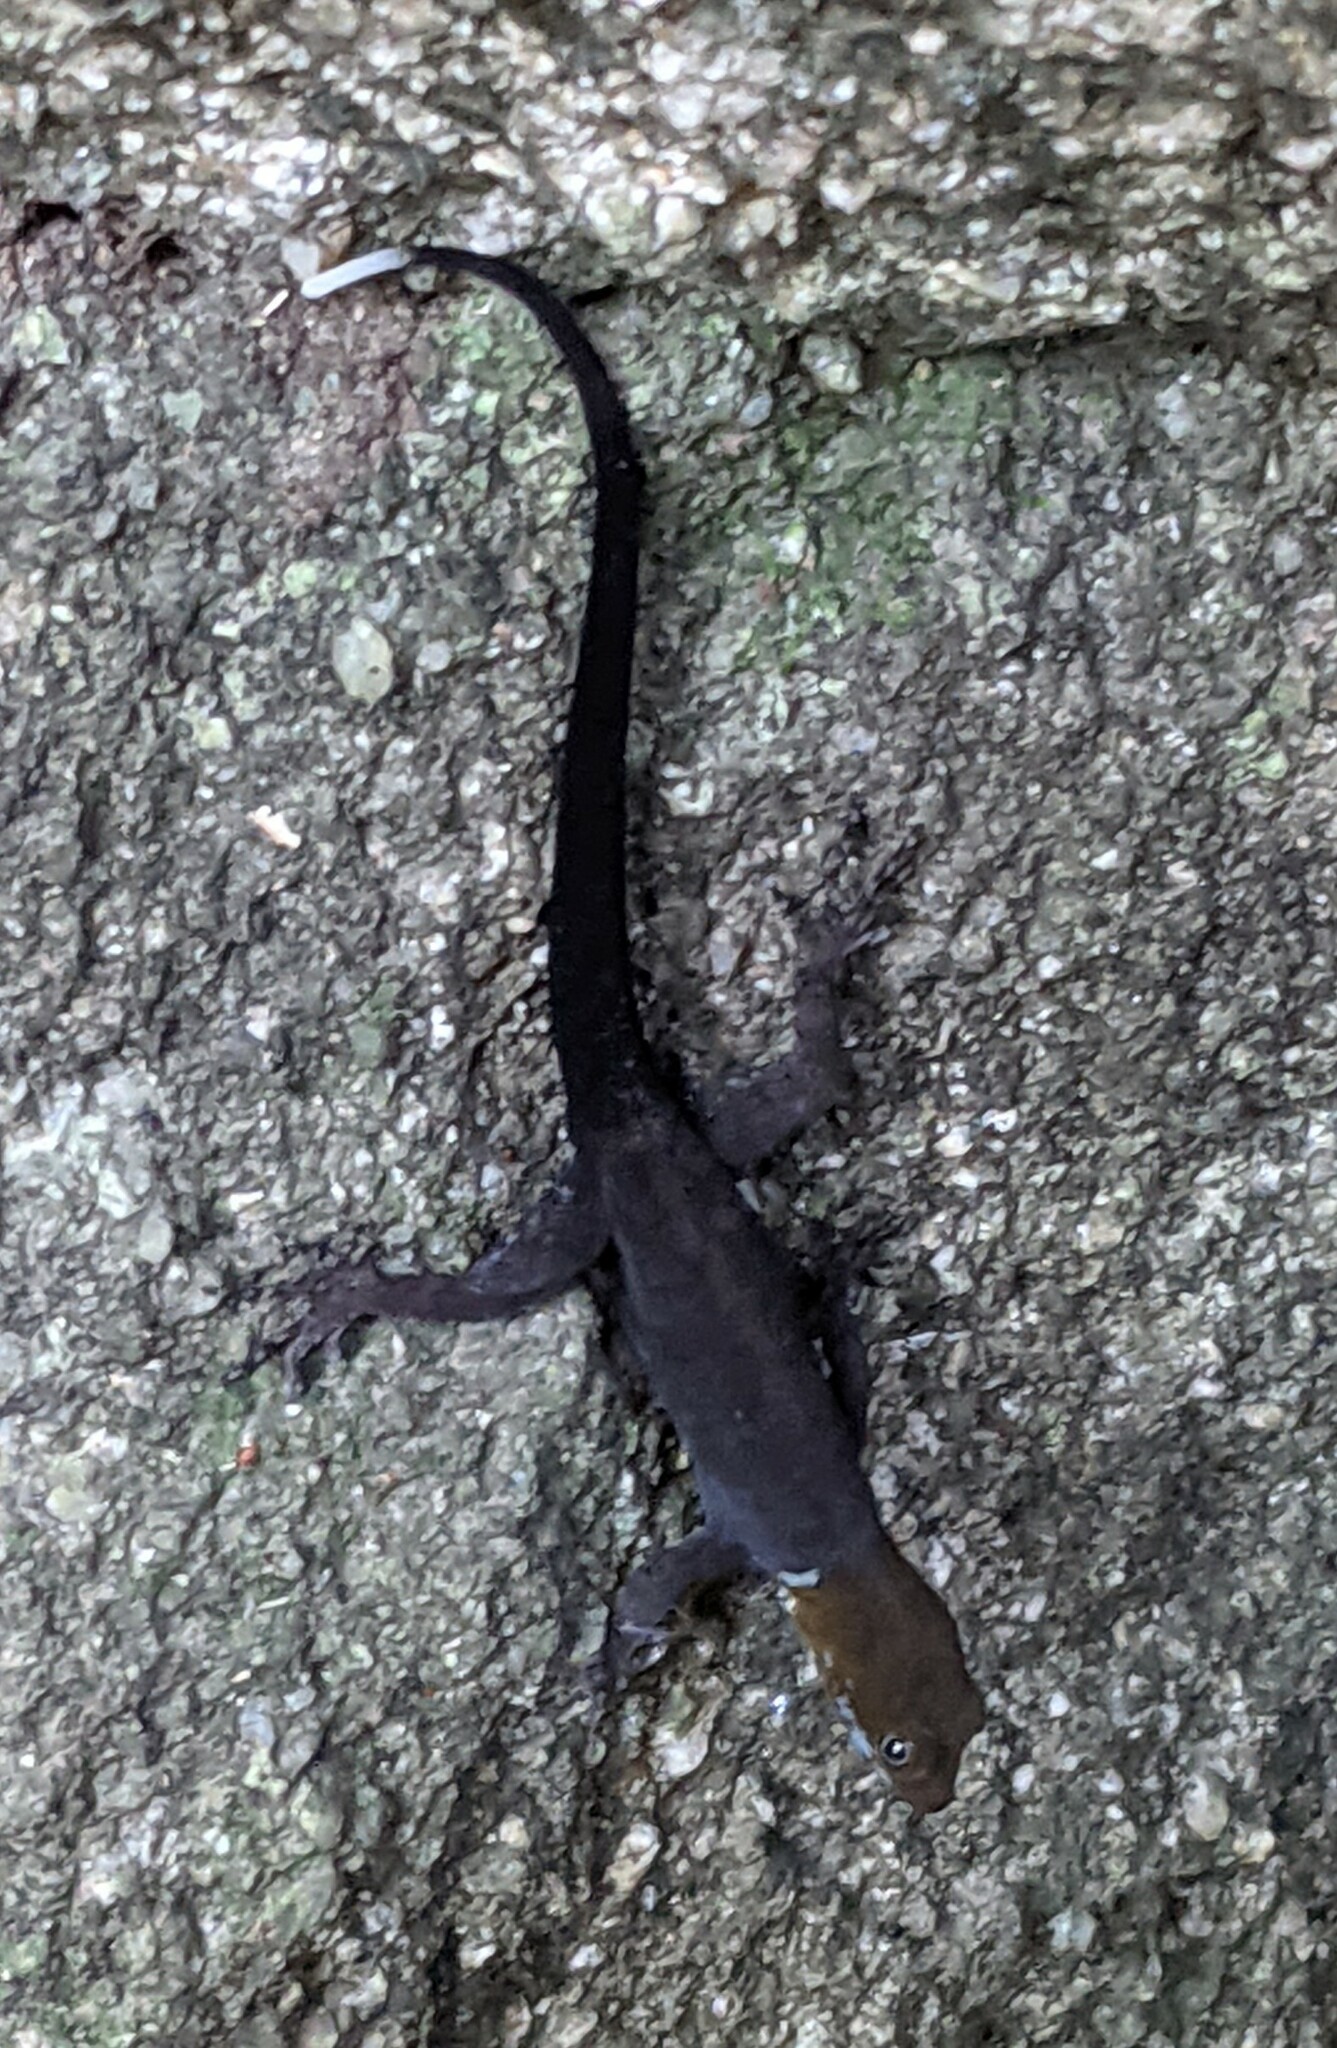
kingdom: Animalia
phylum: Chordata
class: Squamata
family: Sphaerodactylidae
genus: Gonatodes
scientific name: Gonatodes albogularis
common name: Yellow-headed gecko
